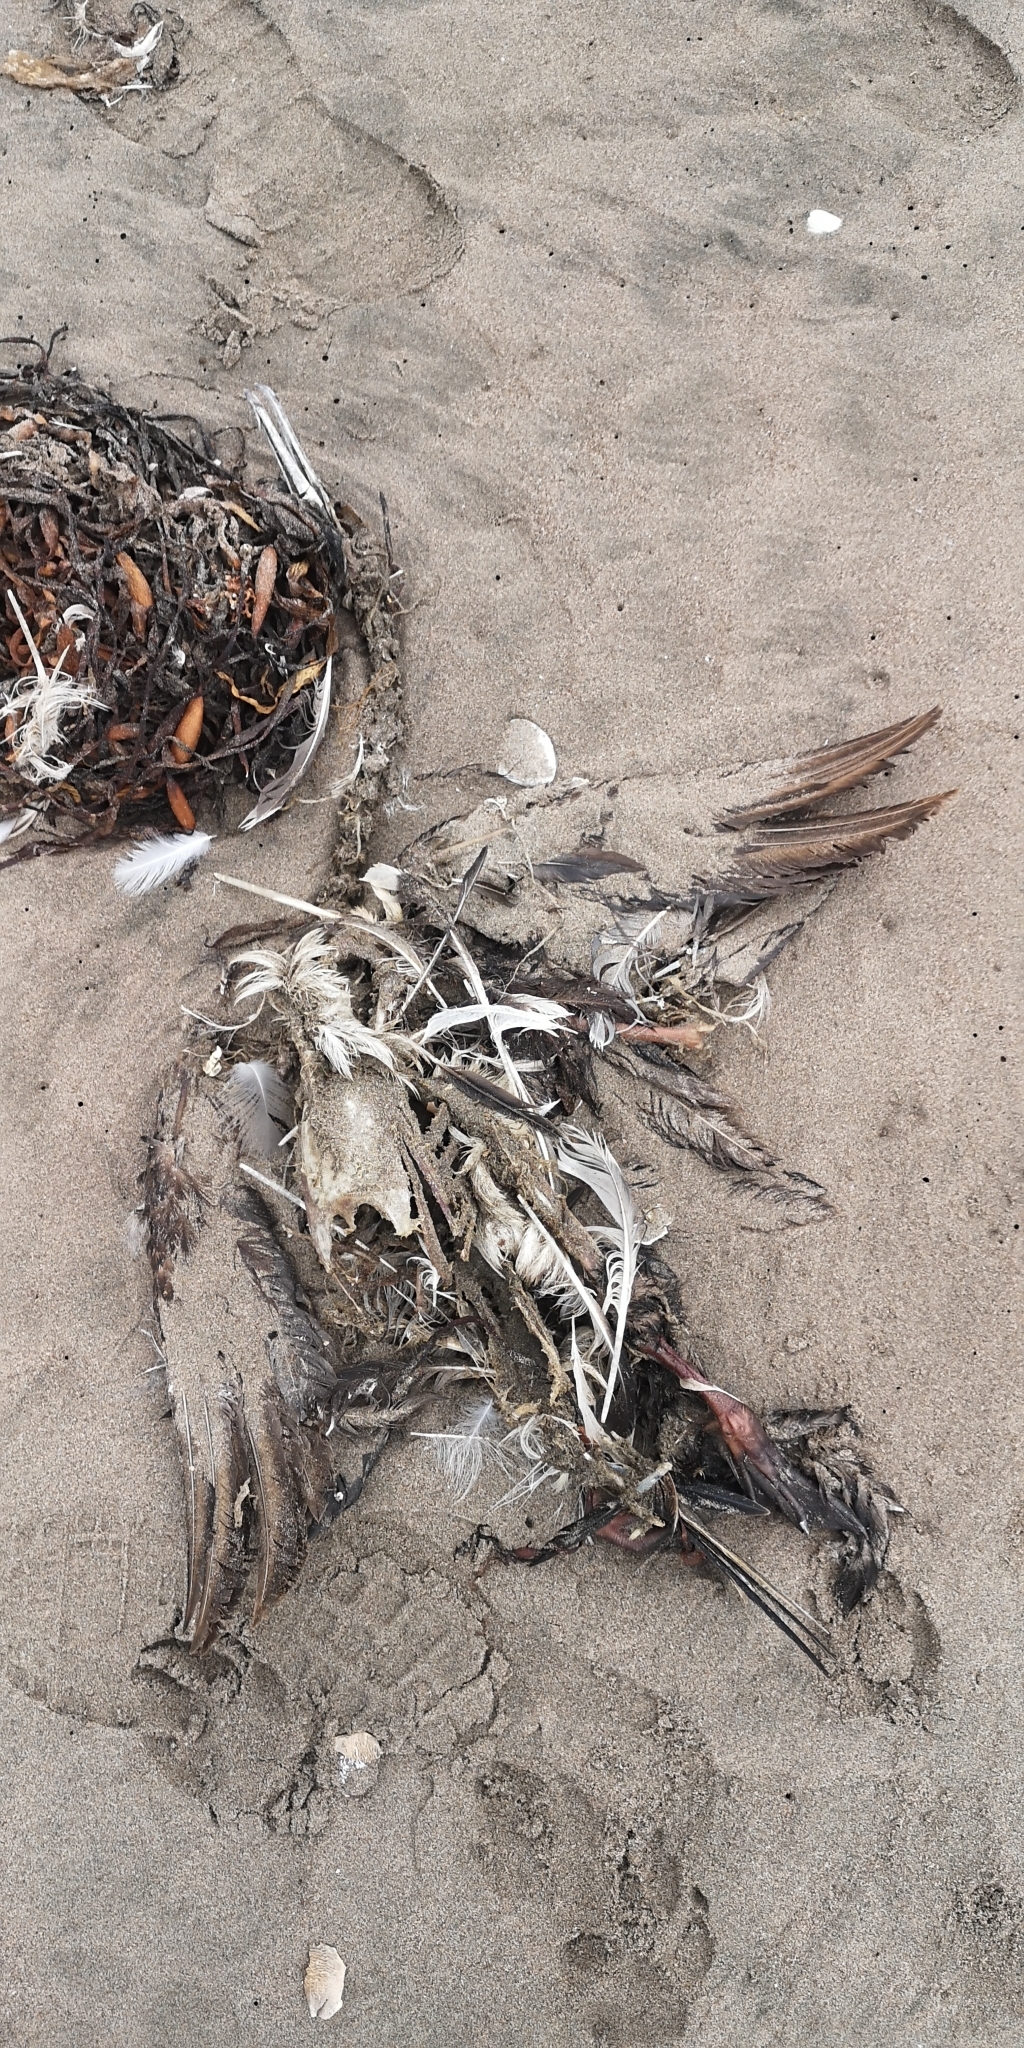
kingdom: Animalia
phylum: Chordata
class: Aves
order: Suliformes
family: Phalacrocoracidae
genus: Leucocarbo
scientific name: Leucocarbo bougainvillii
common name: Guanay cormorant
